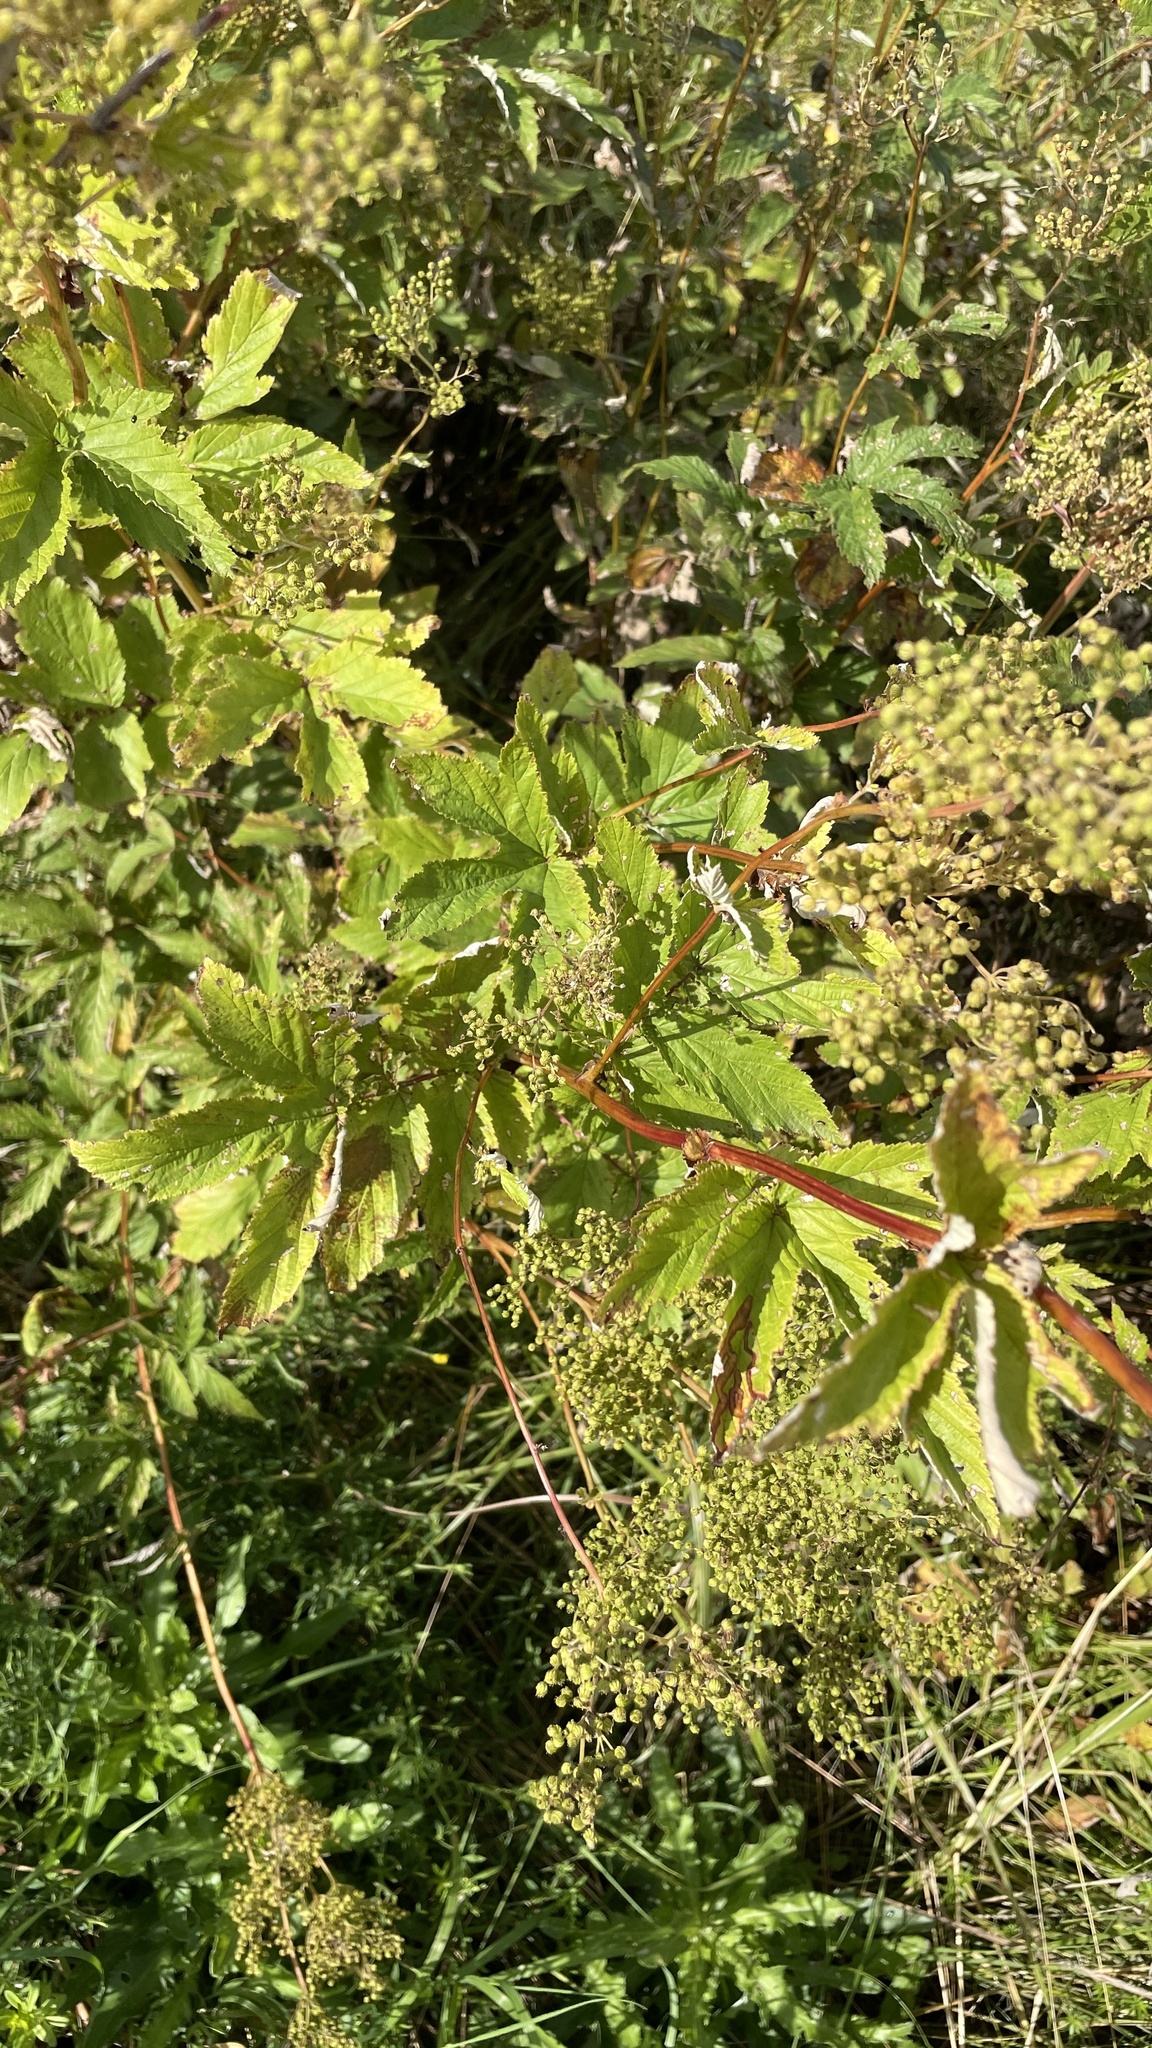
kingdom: Plantae
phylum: Tracheophyta
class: Magnoliopsida
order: Rosales
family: Rosaceae
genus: Filipendula
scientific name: Filipendula ulmaria
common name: Meadowsweet
